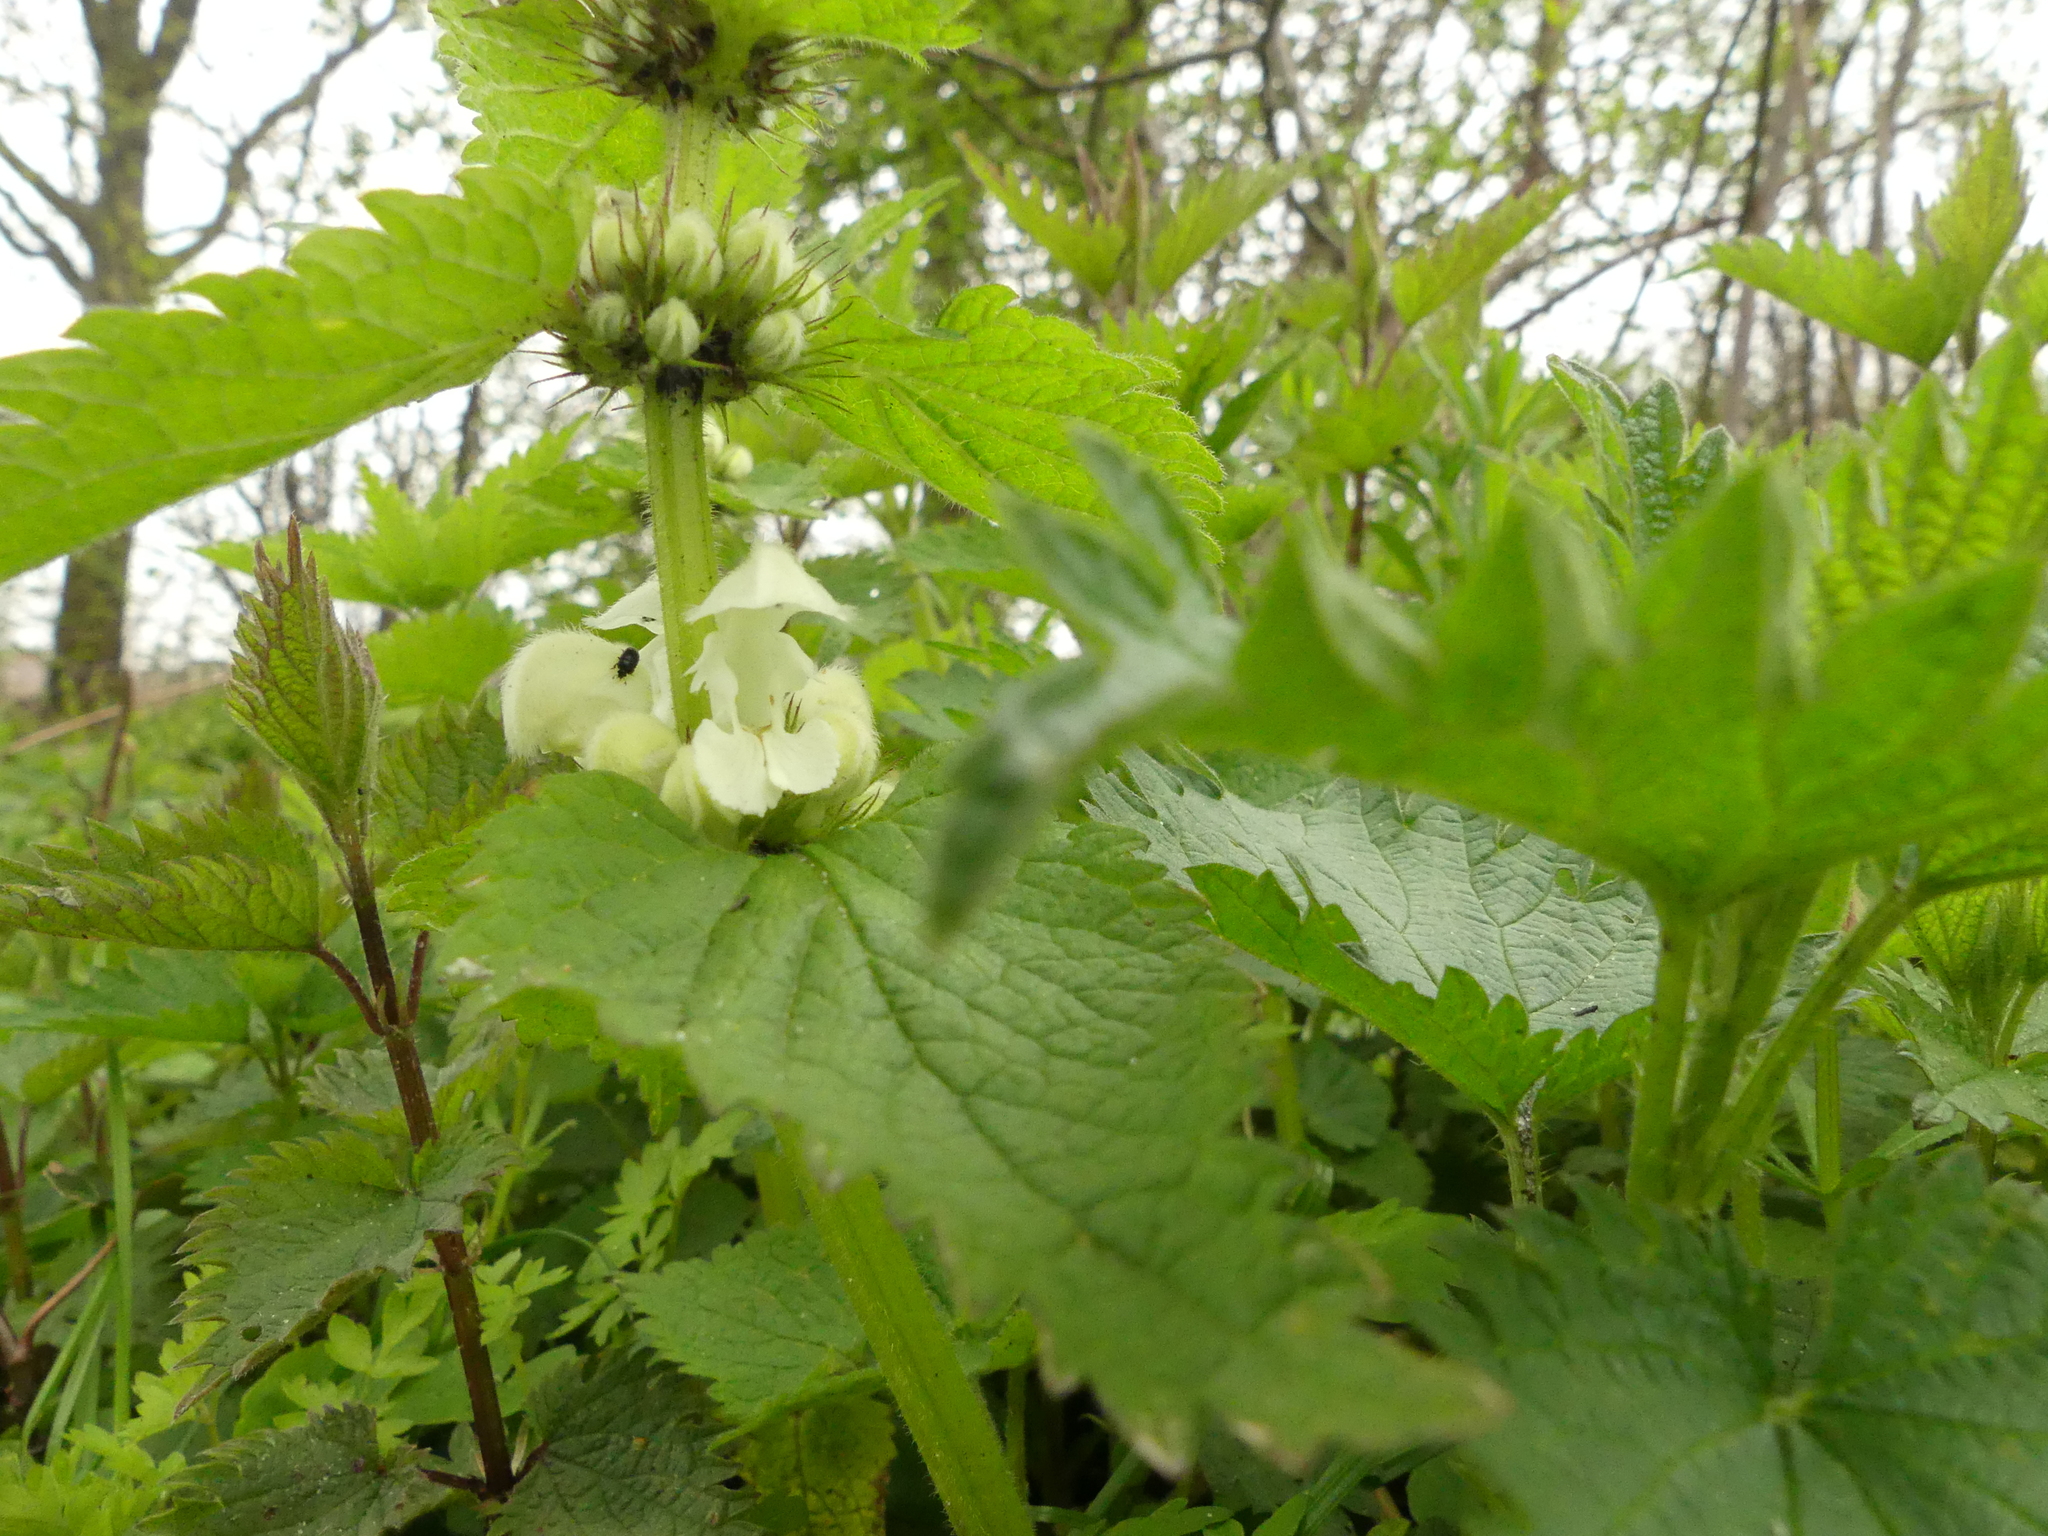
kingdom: Plantae
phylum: Tracheophyta
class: Magnoliopsida
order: Lamiales
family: Lamiaceae
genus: Lamium
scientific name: Lamium album
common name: White dead-nettle
